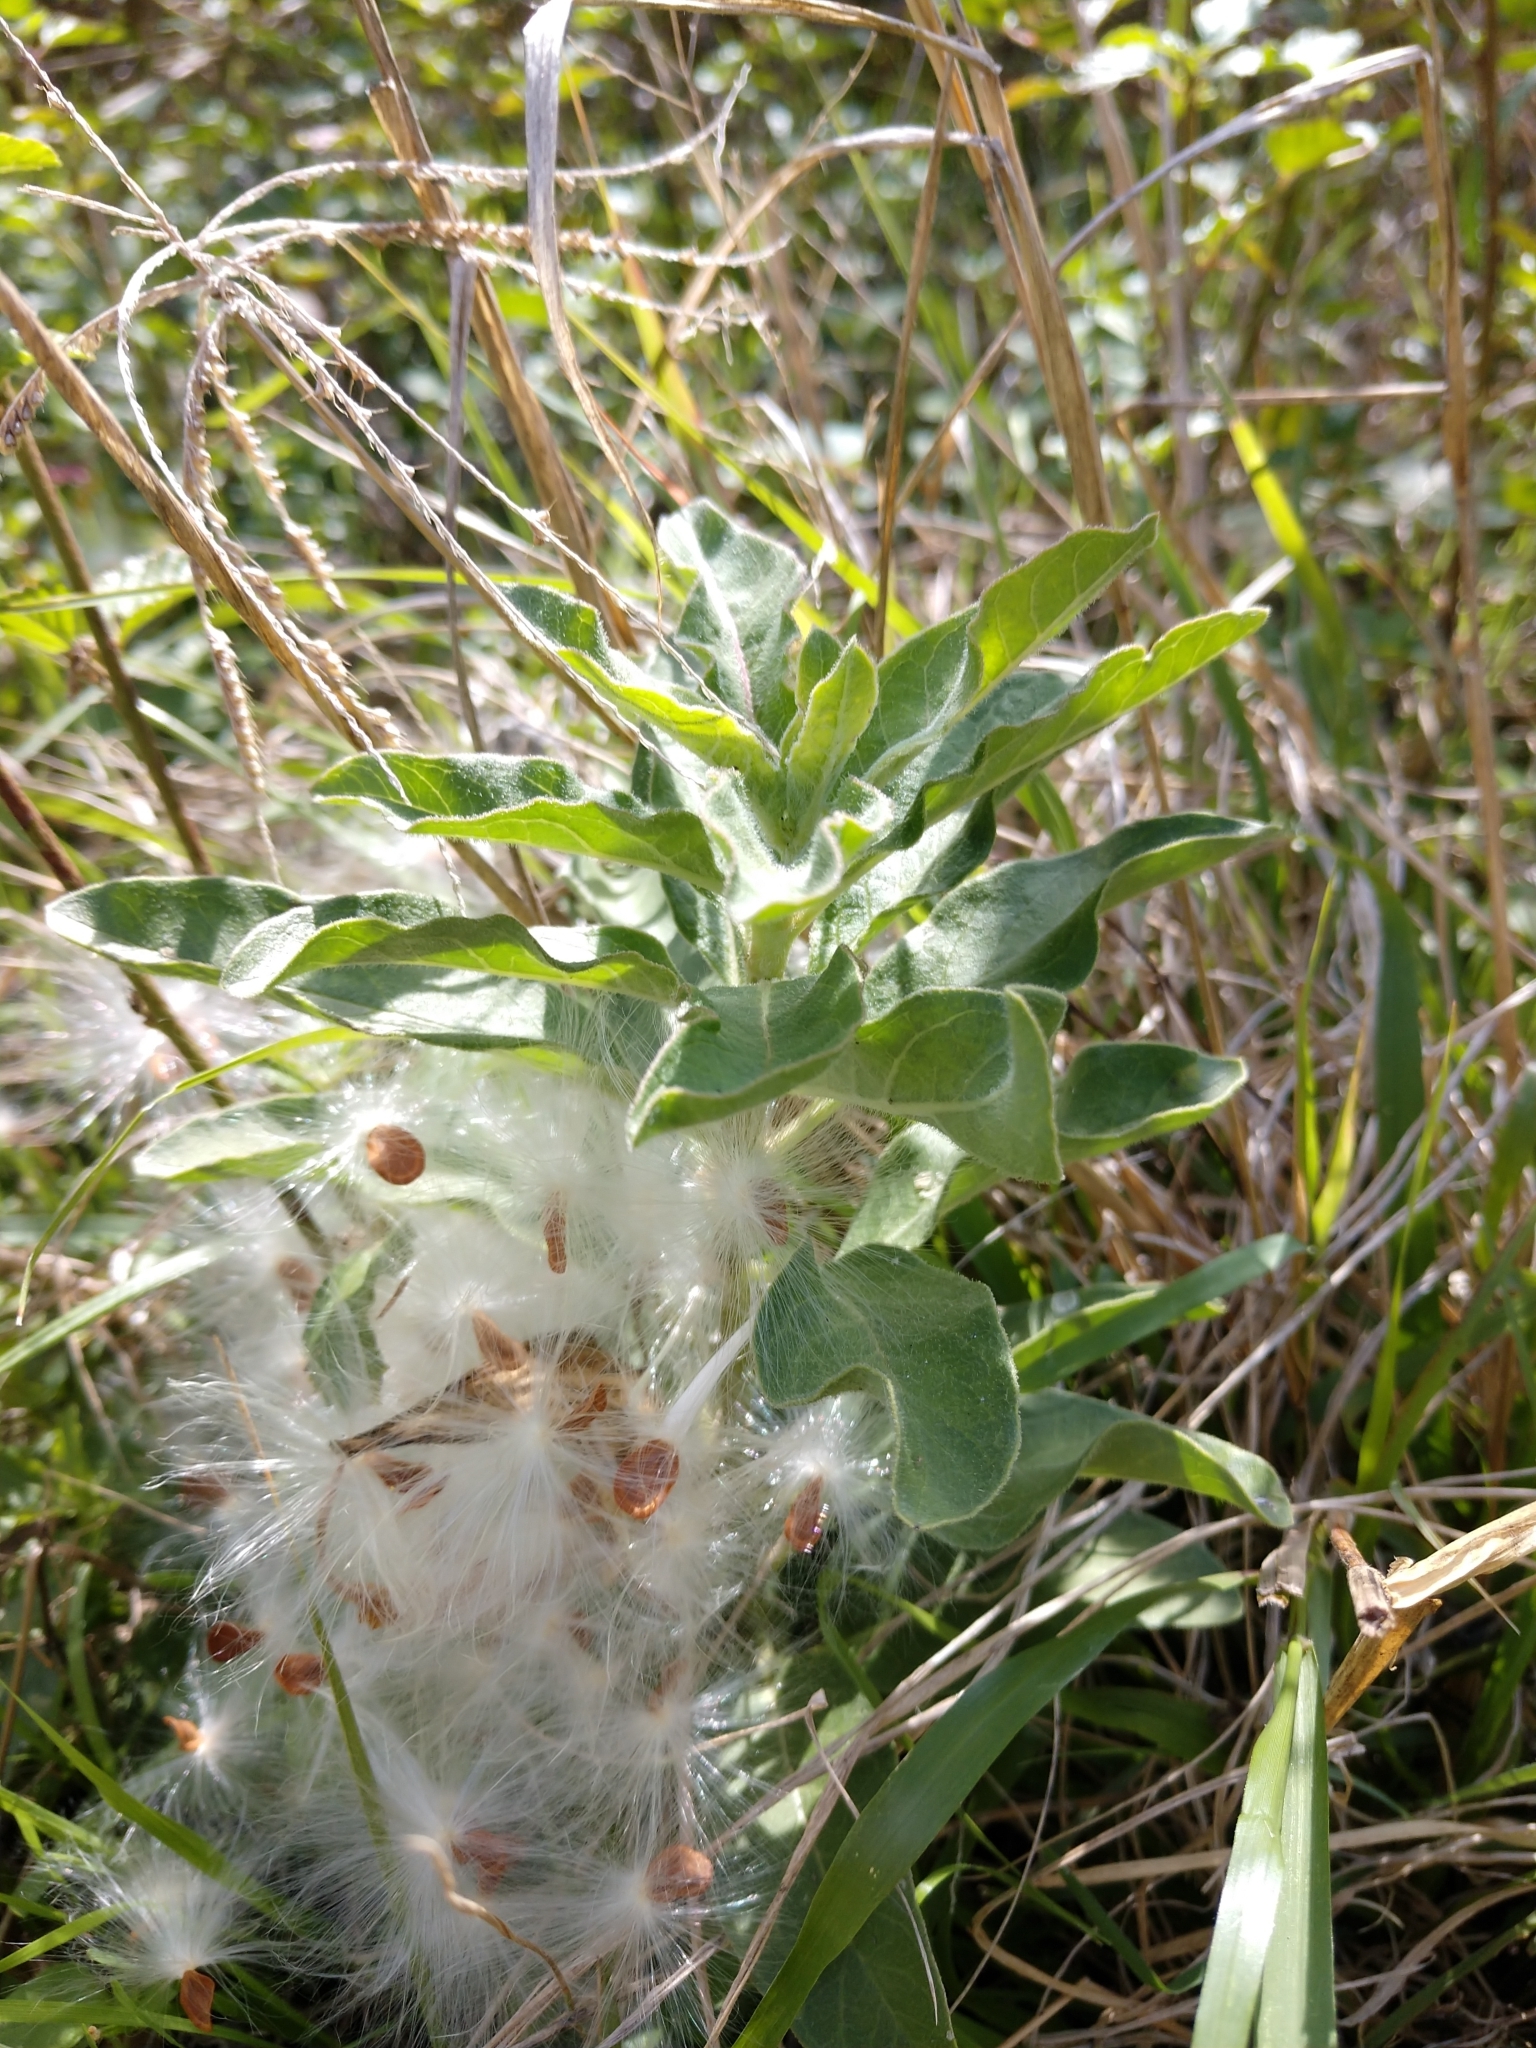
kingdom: Plantae
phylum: Tracheophyta
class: Magnoliopsida
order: Gentianales
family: Apocynaceae
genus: Asclepias
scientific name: Asclepias oenotheroides
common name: Zizotes milkweed
